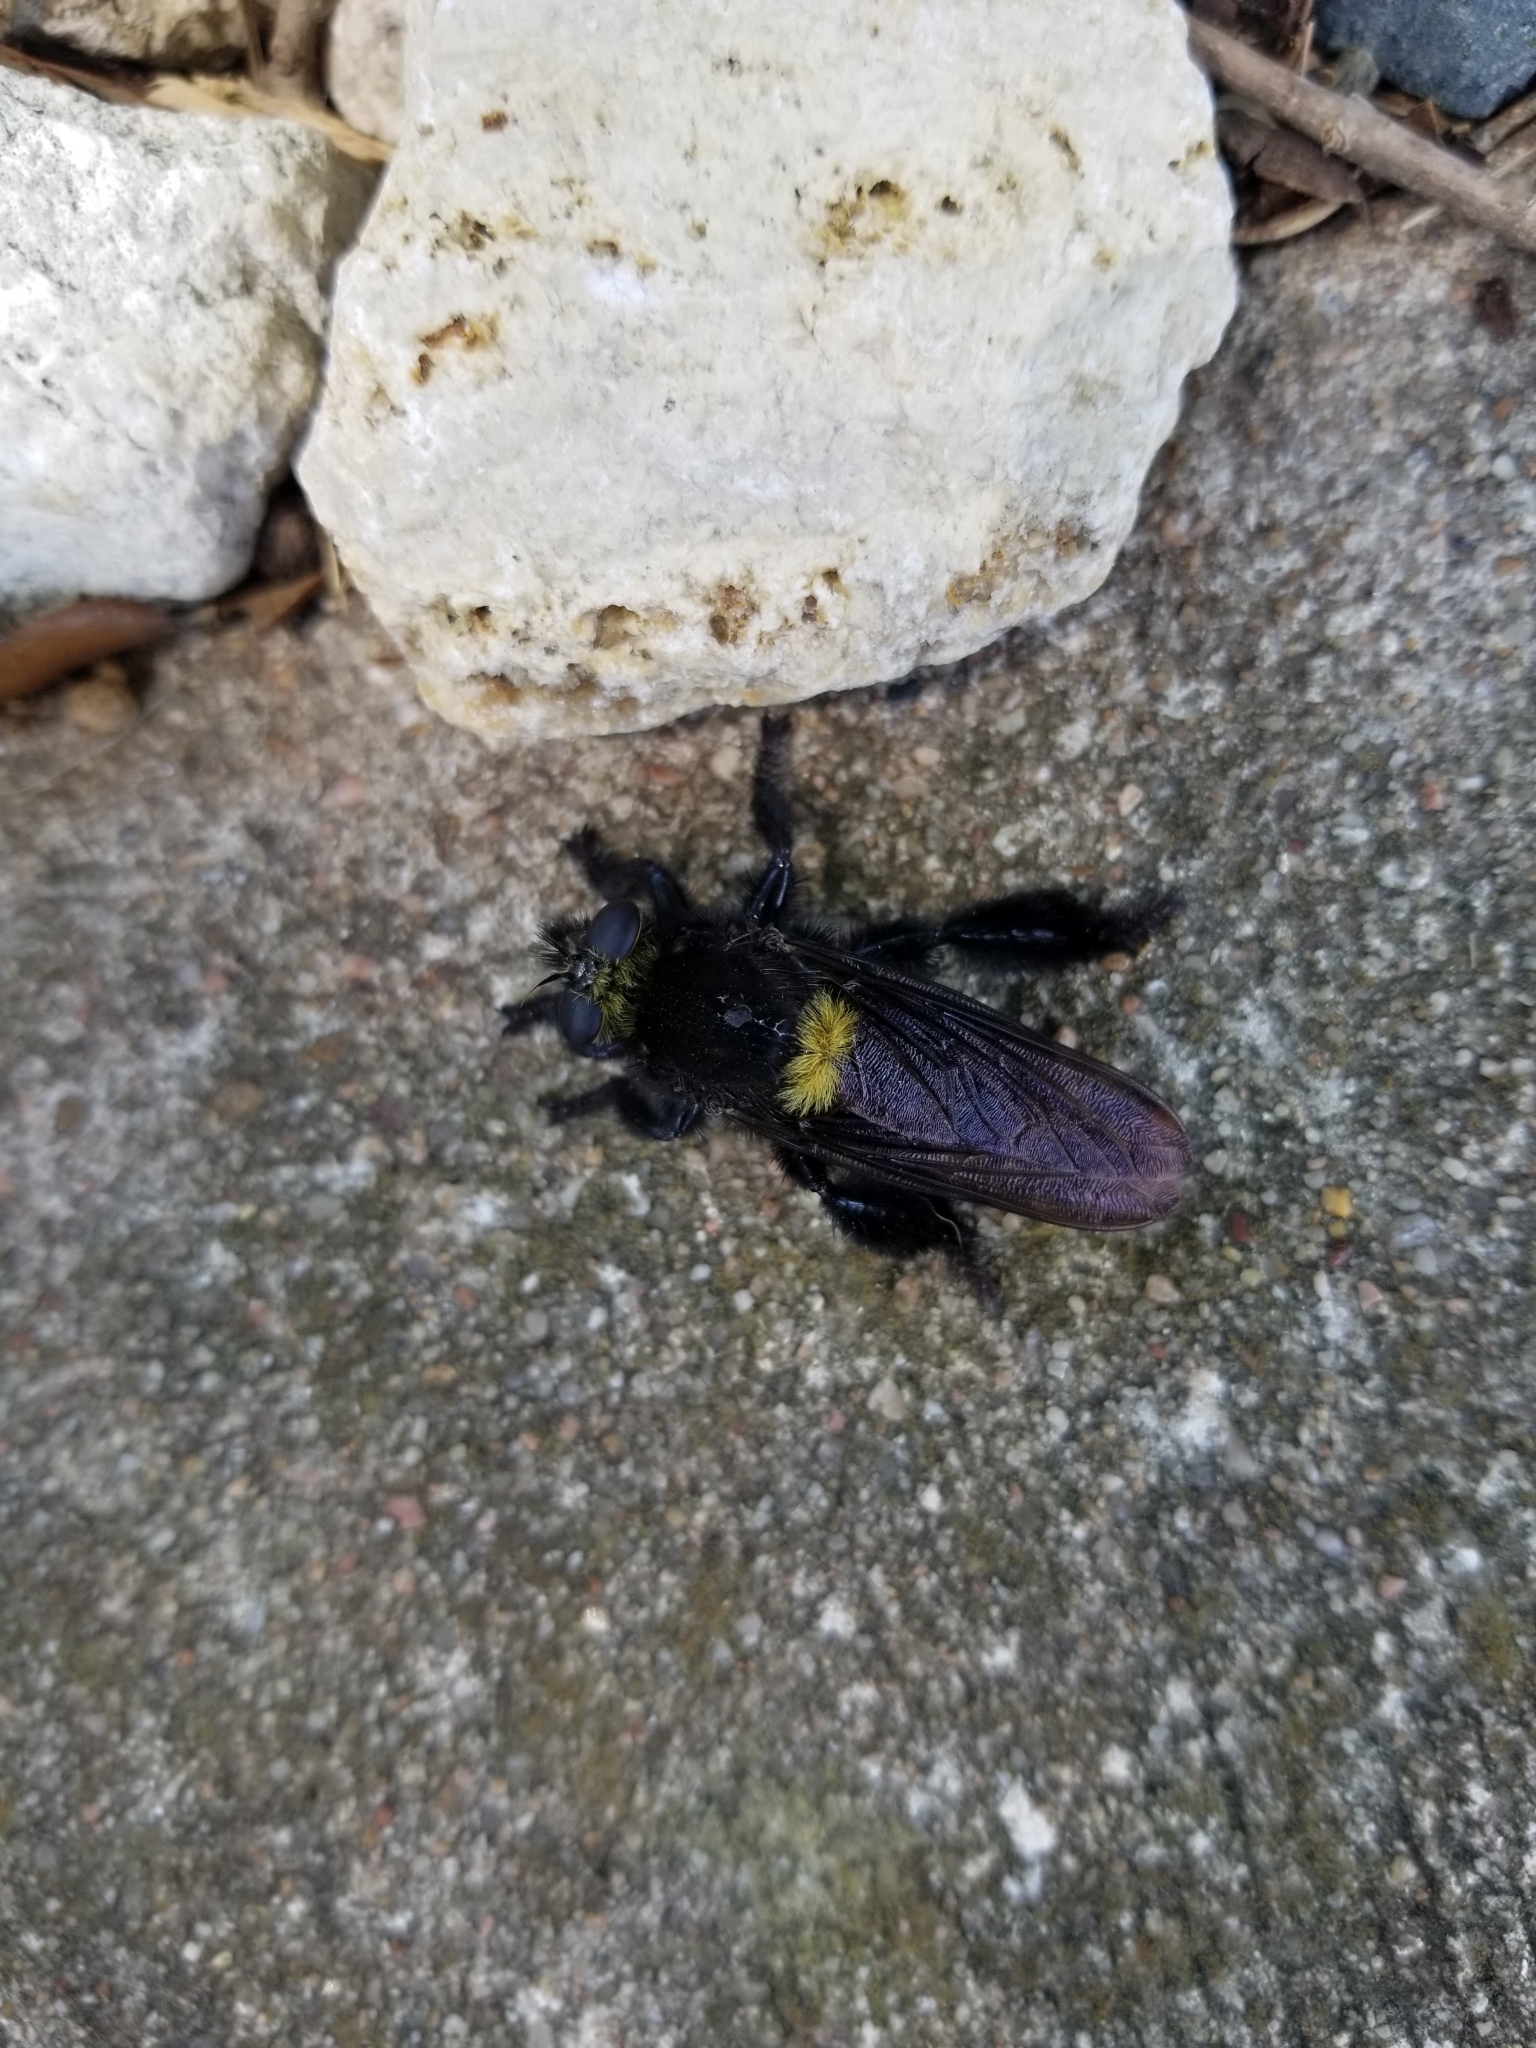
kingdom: Animalia
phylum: Arthropoda
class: Insecta
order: Diptera
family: Asilidae
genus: Mallophora
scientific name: Mallophora leschenaultii
